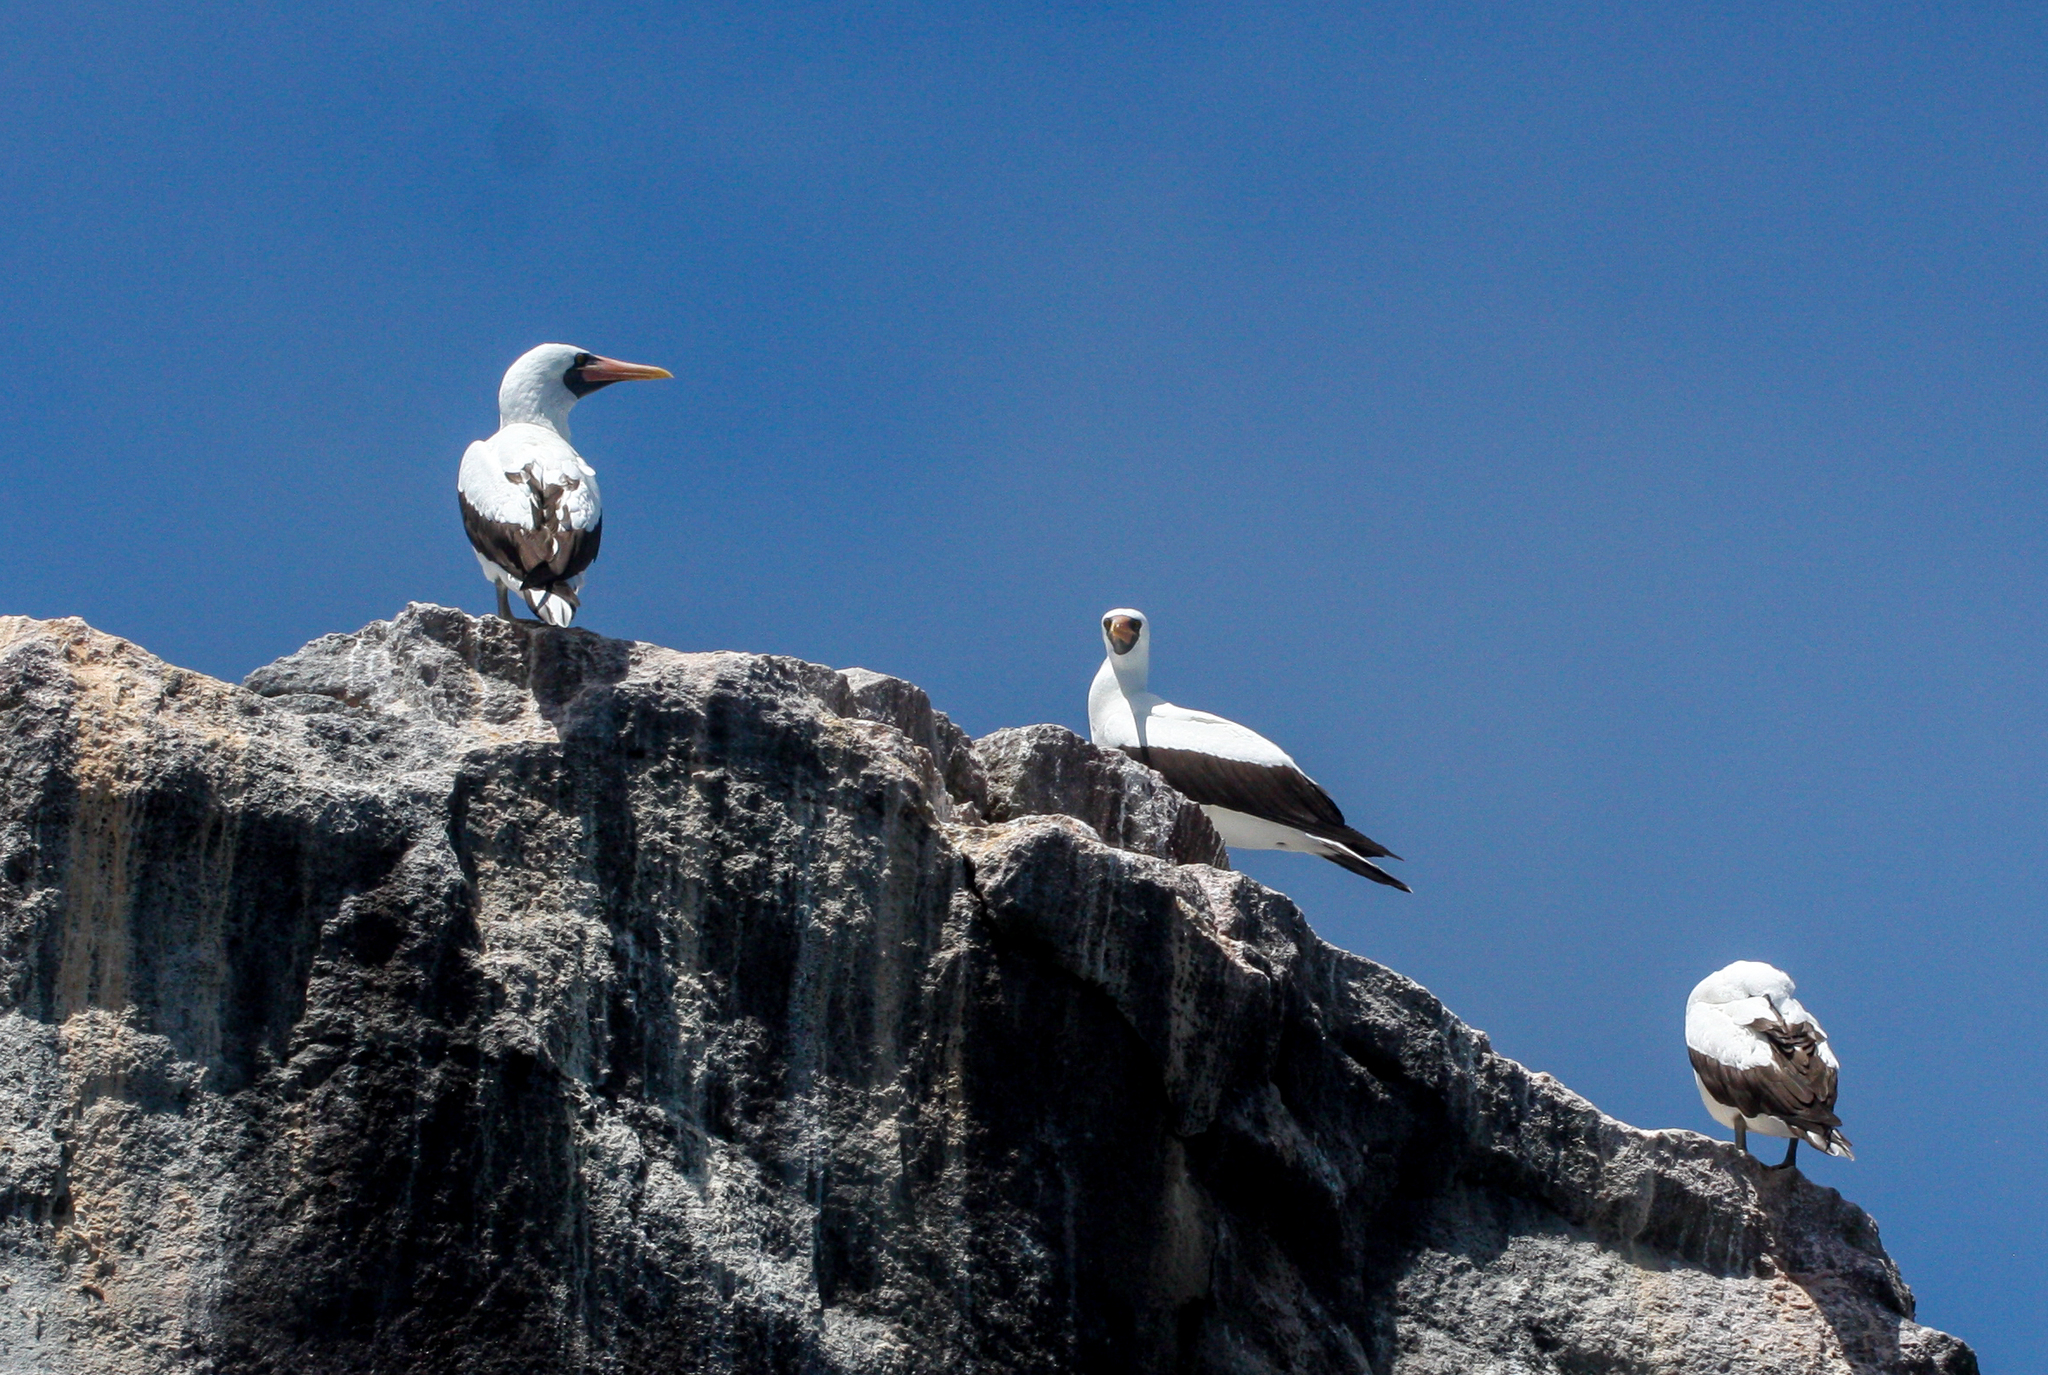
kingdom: Animalia
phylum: Chordata
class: Aves
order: Suliformes
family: Sulidae
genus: Sula
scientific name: Sula granti
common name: Nazca booby
